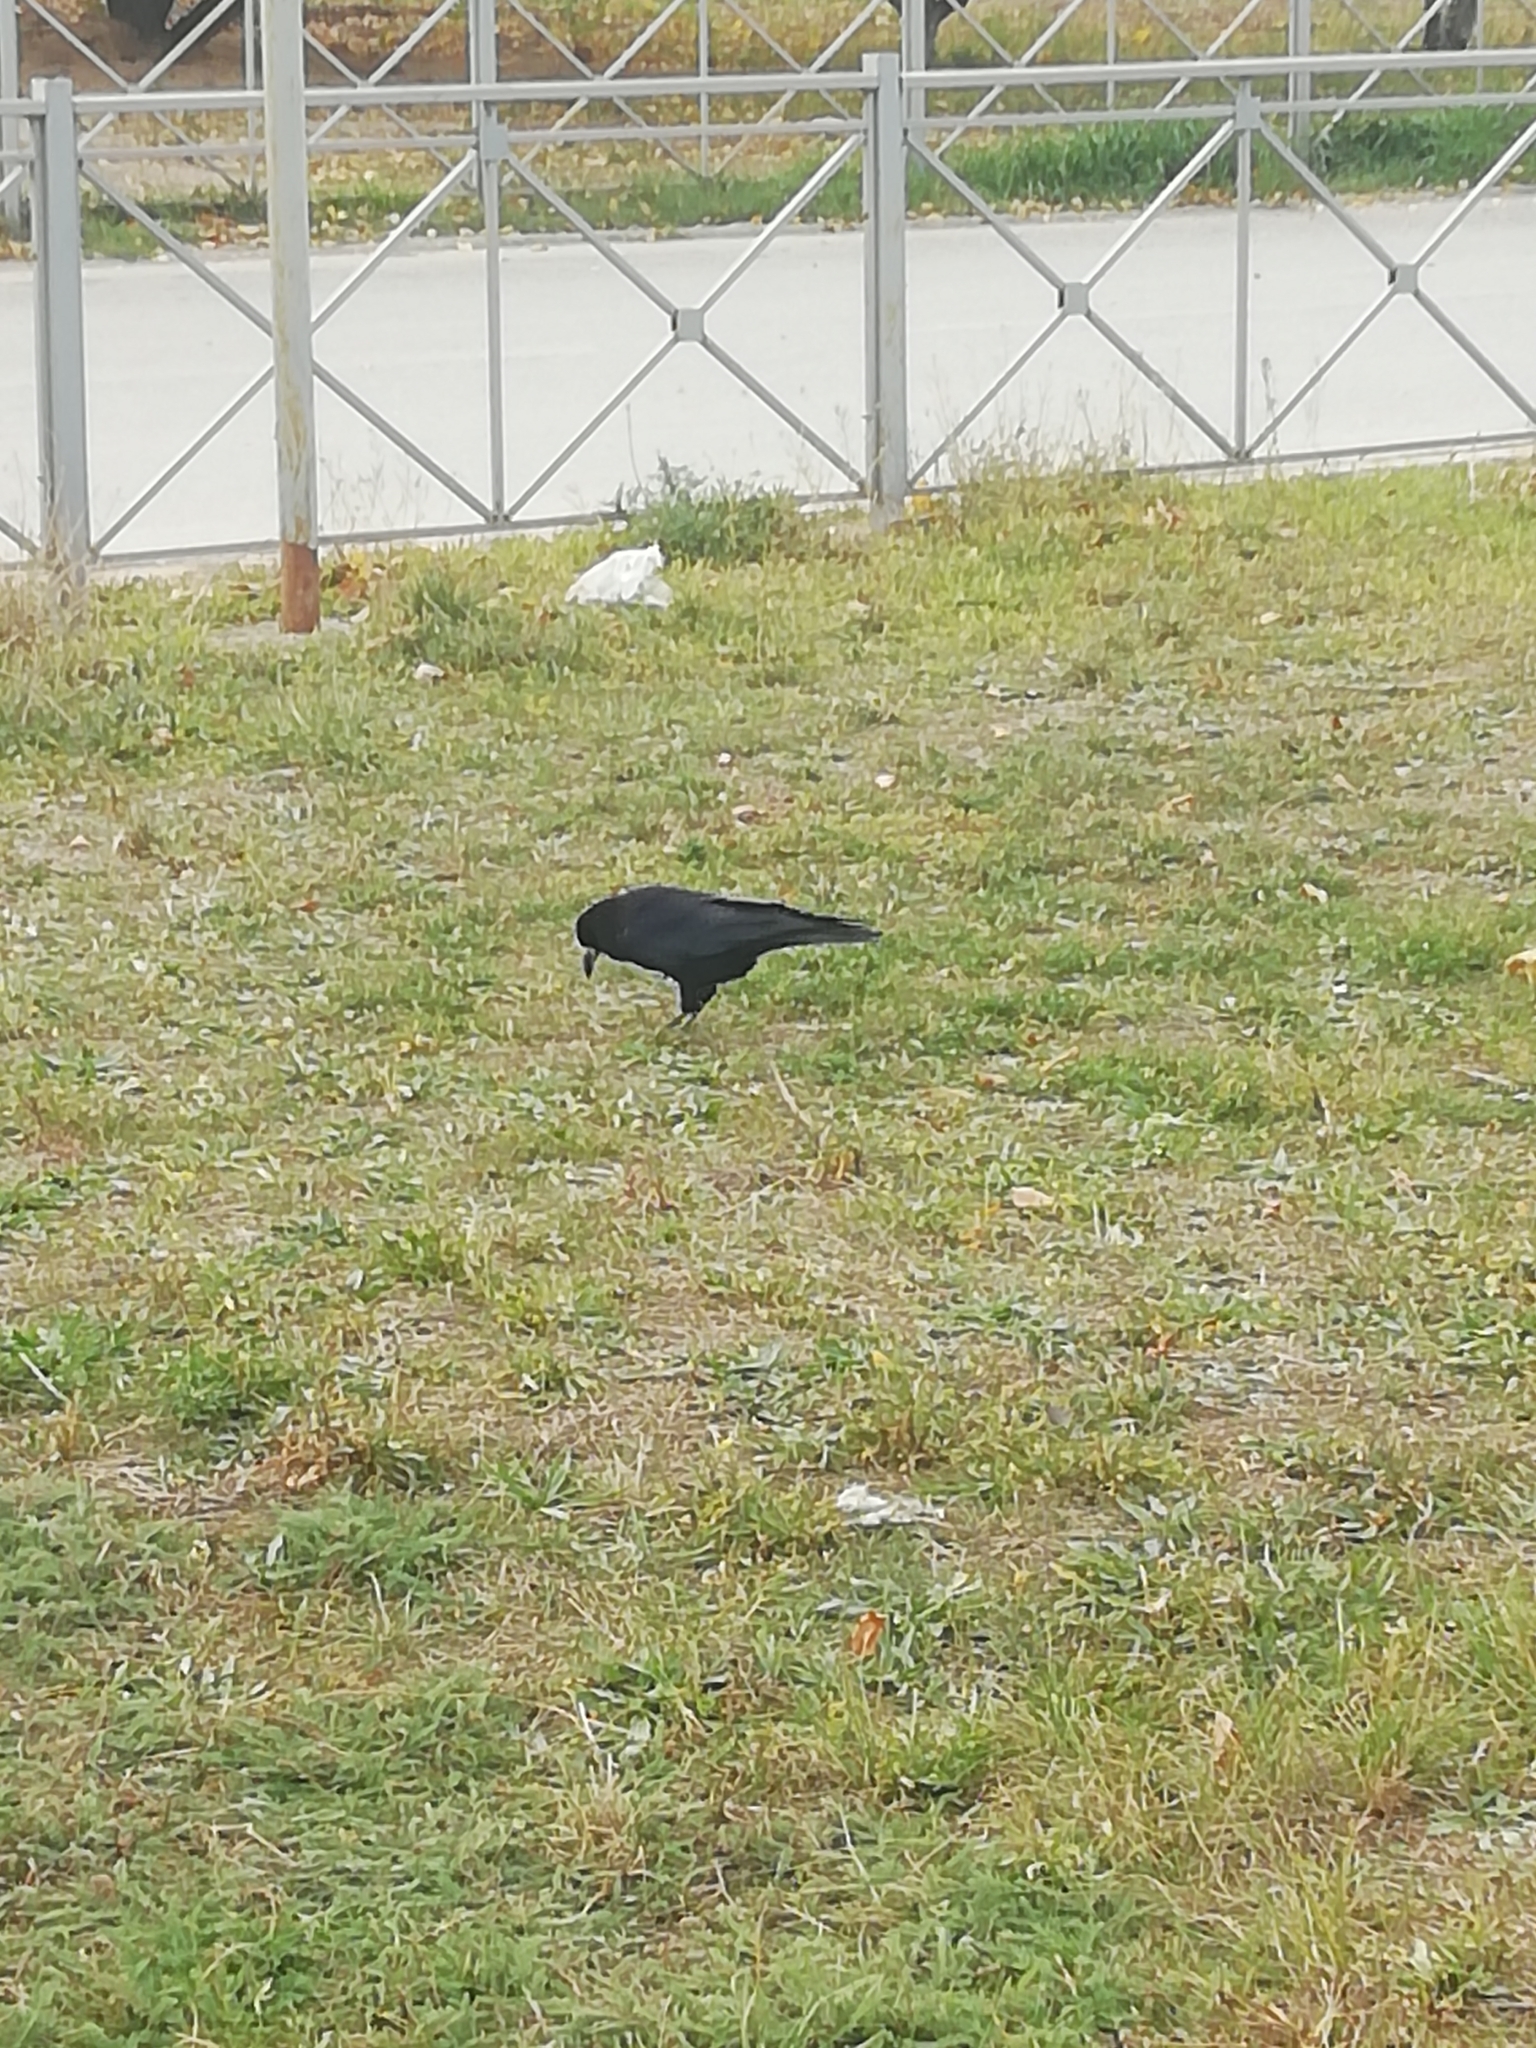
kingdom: Animalia
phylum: Chordata
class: Aves
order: Passeriformes
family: Corvidae
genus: Corvus
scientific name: Corvus frugilegus
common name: Rook
